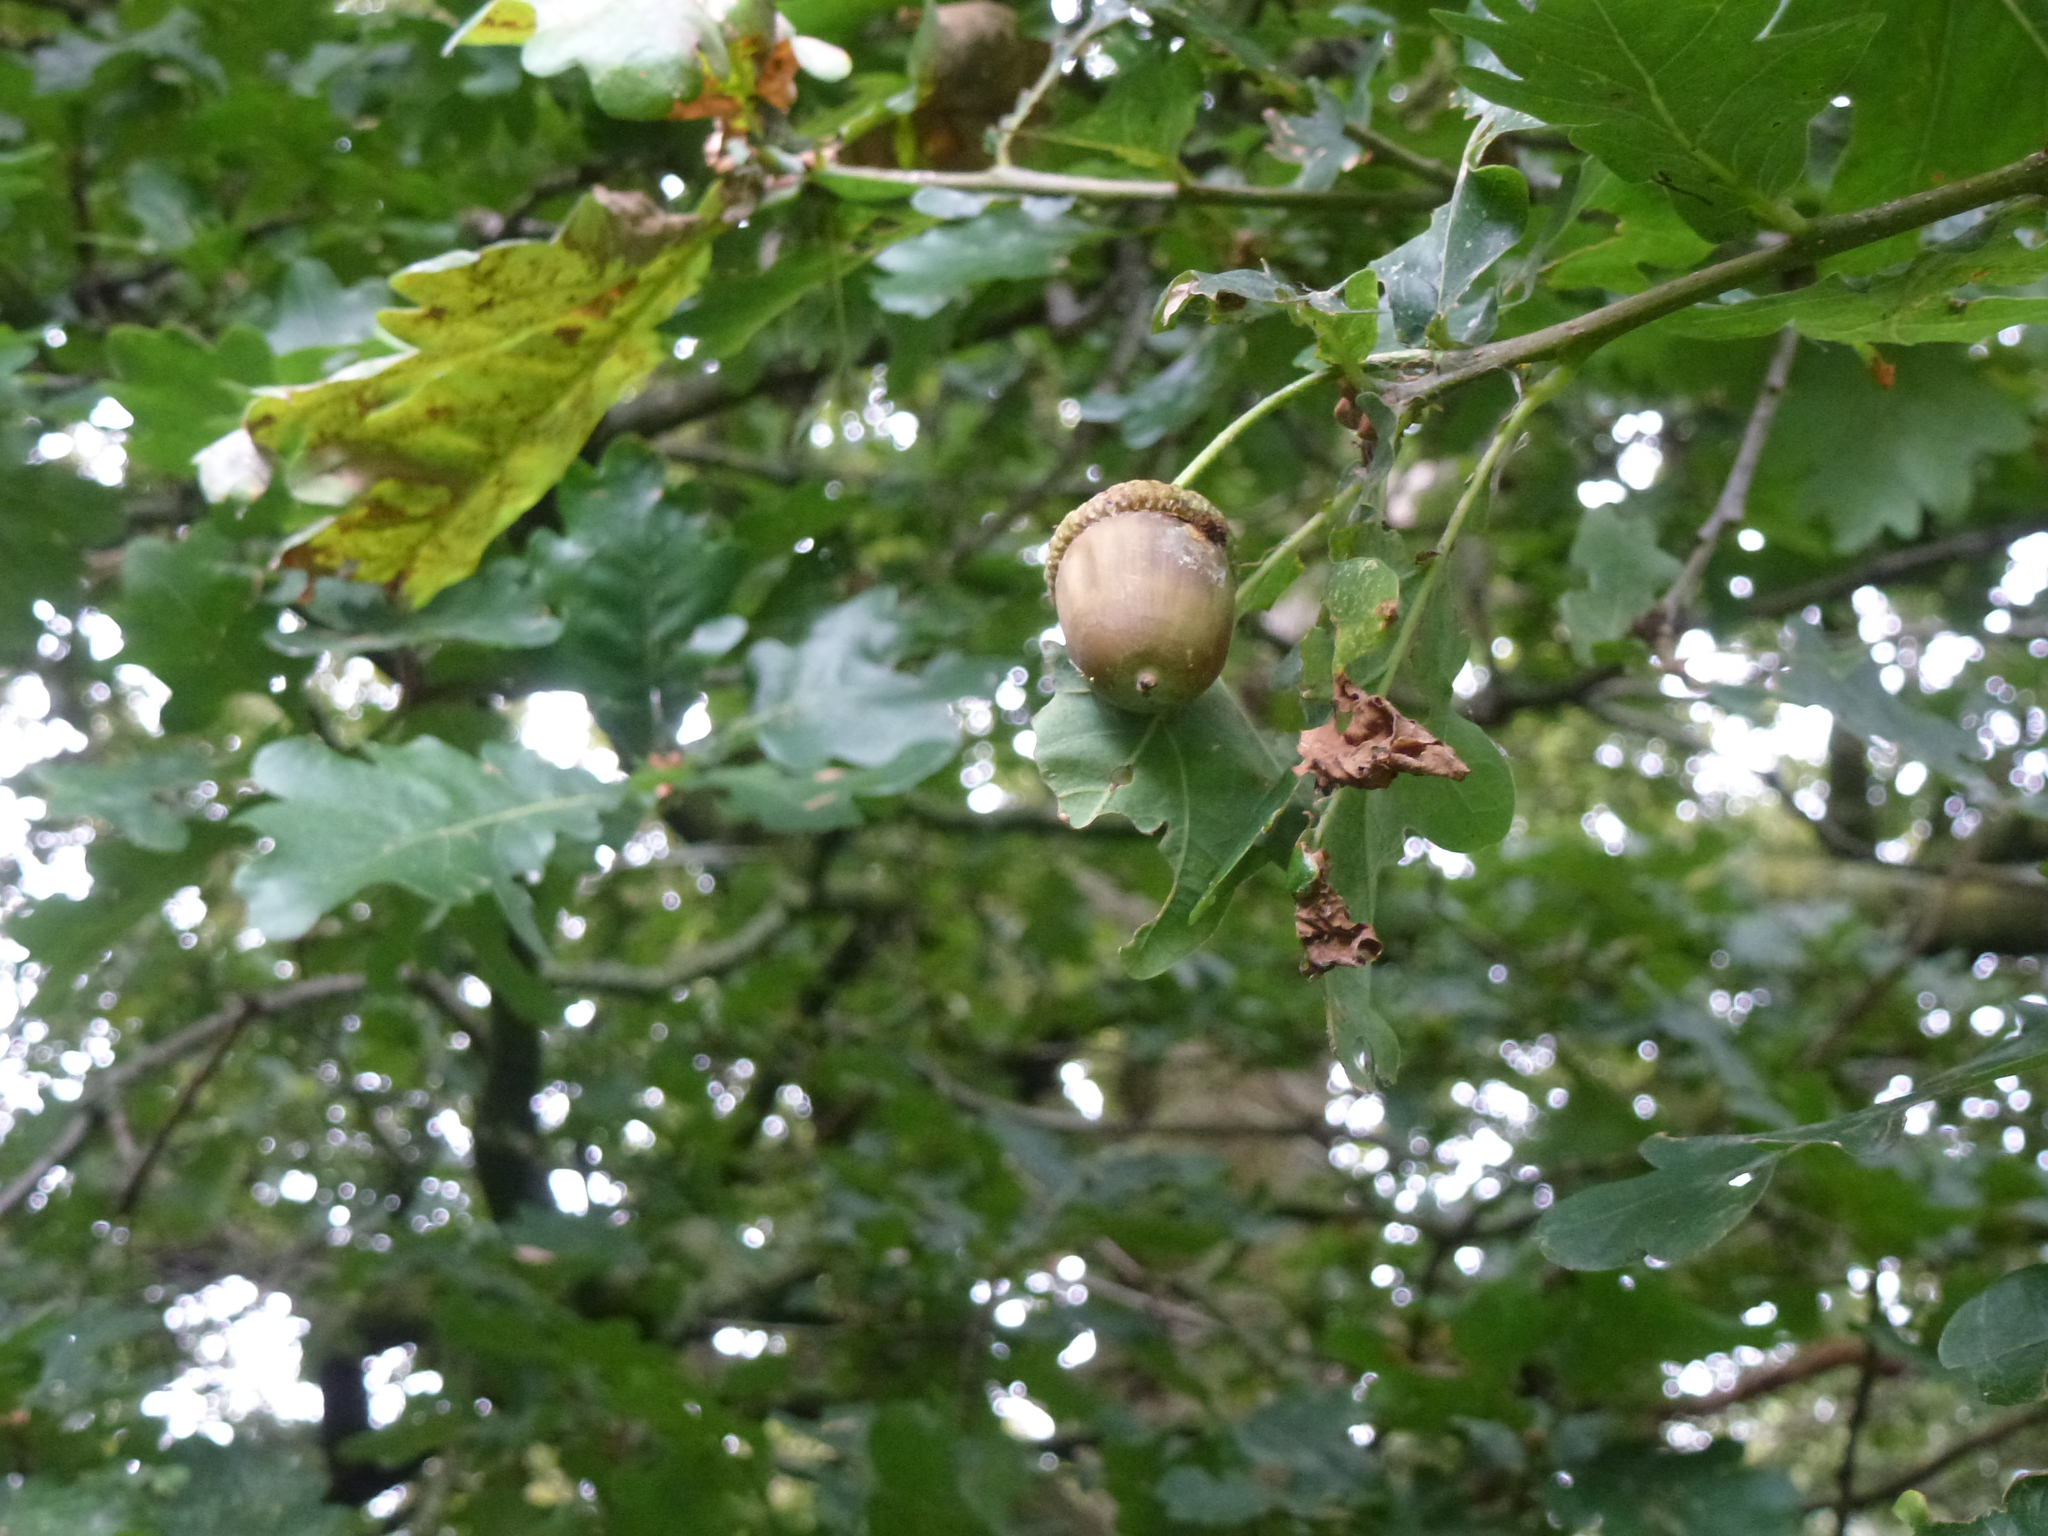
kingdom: Plantae
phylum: Tracheophyta
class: Magnoliopsida
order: Fagales
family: Fagaceae
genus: Quercus
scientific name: Quercus robur
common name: Pedunculate oak
